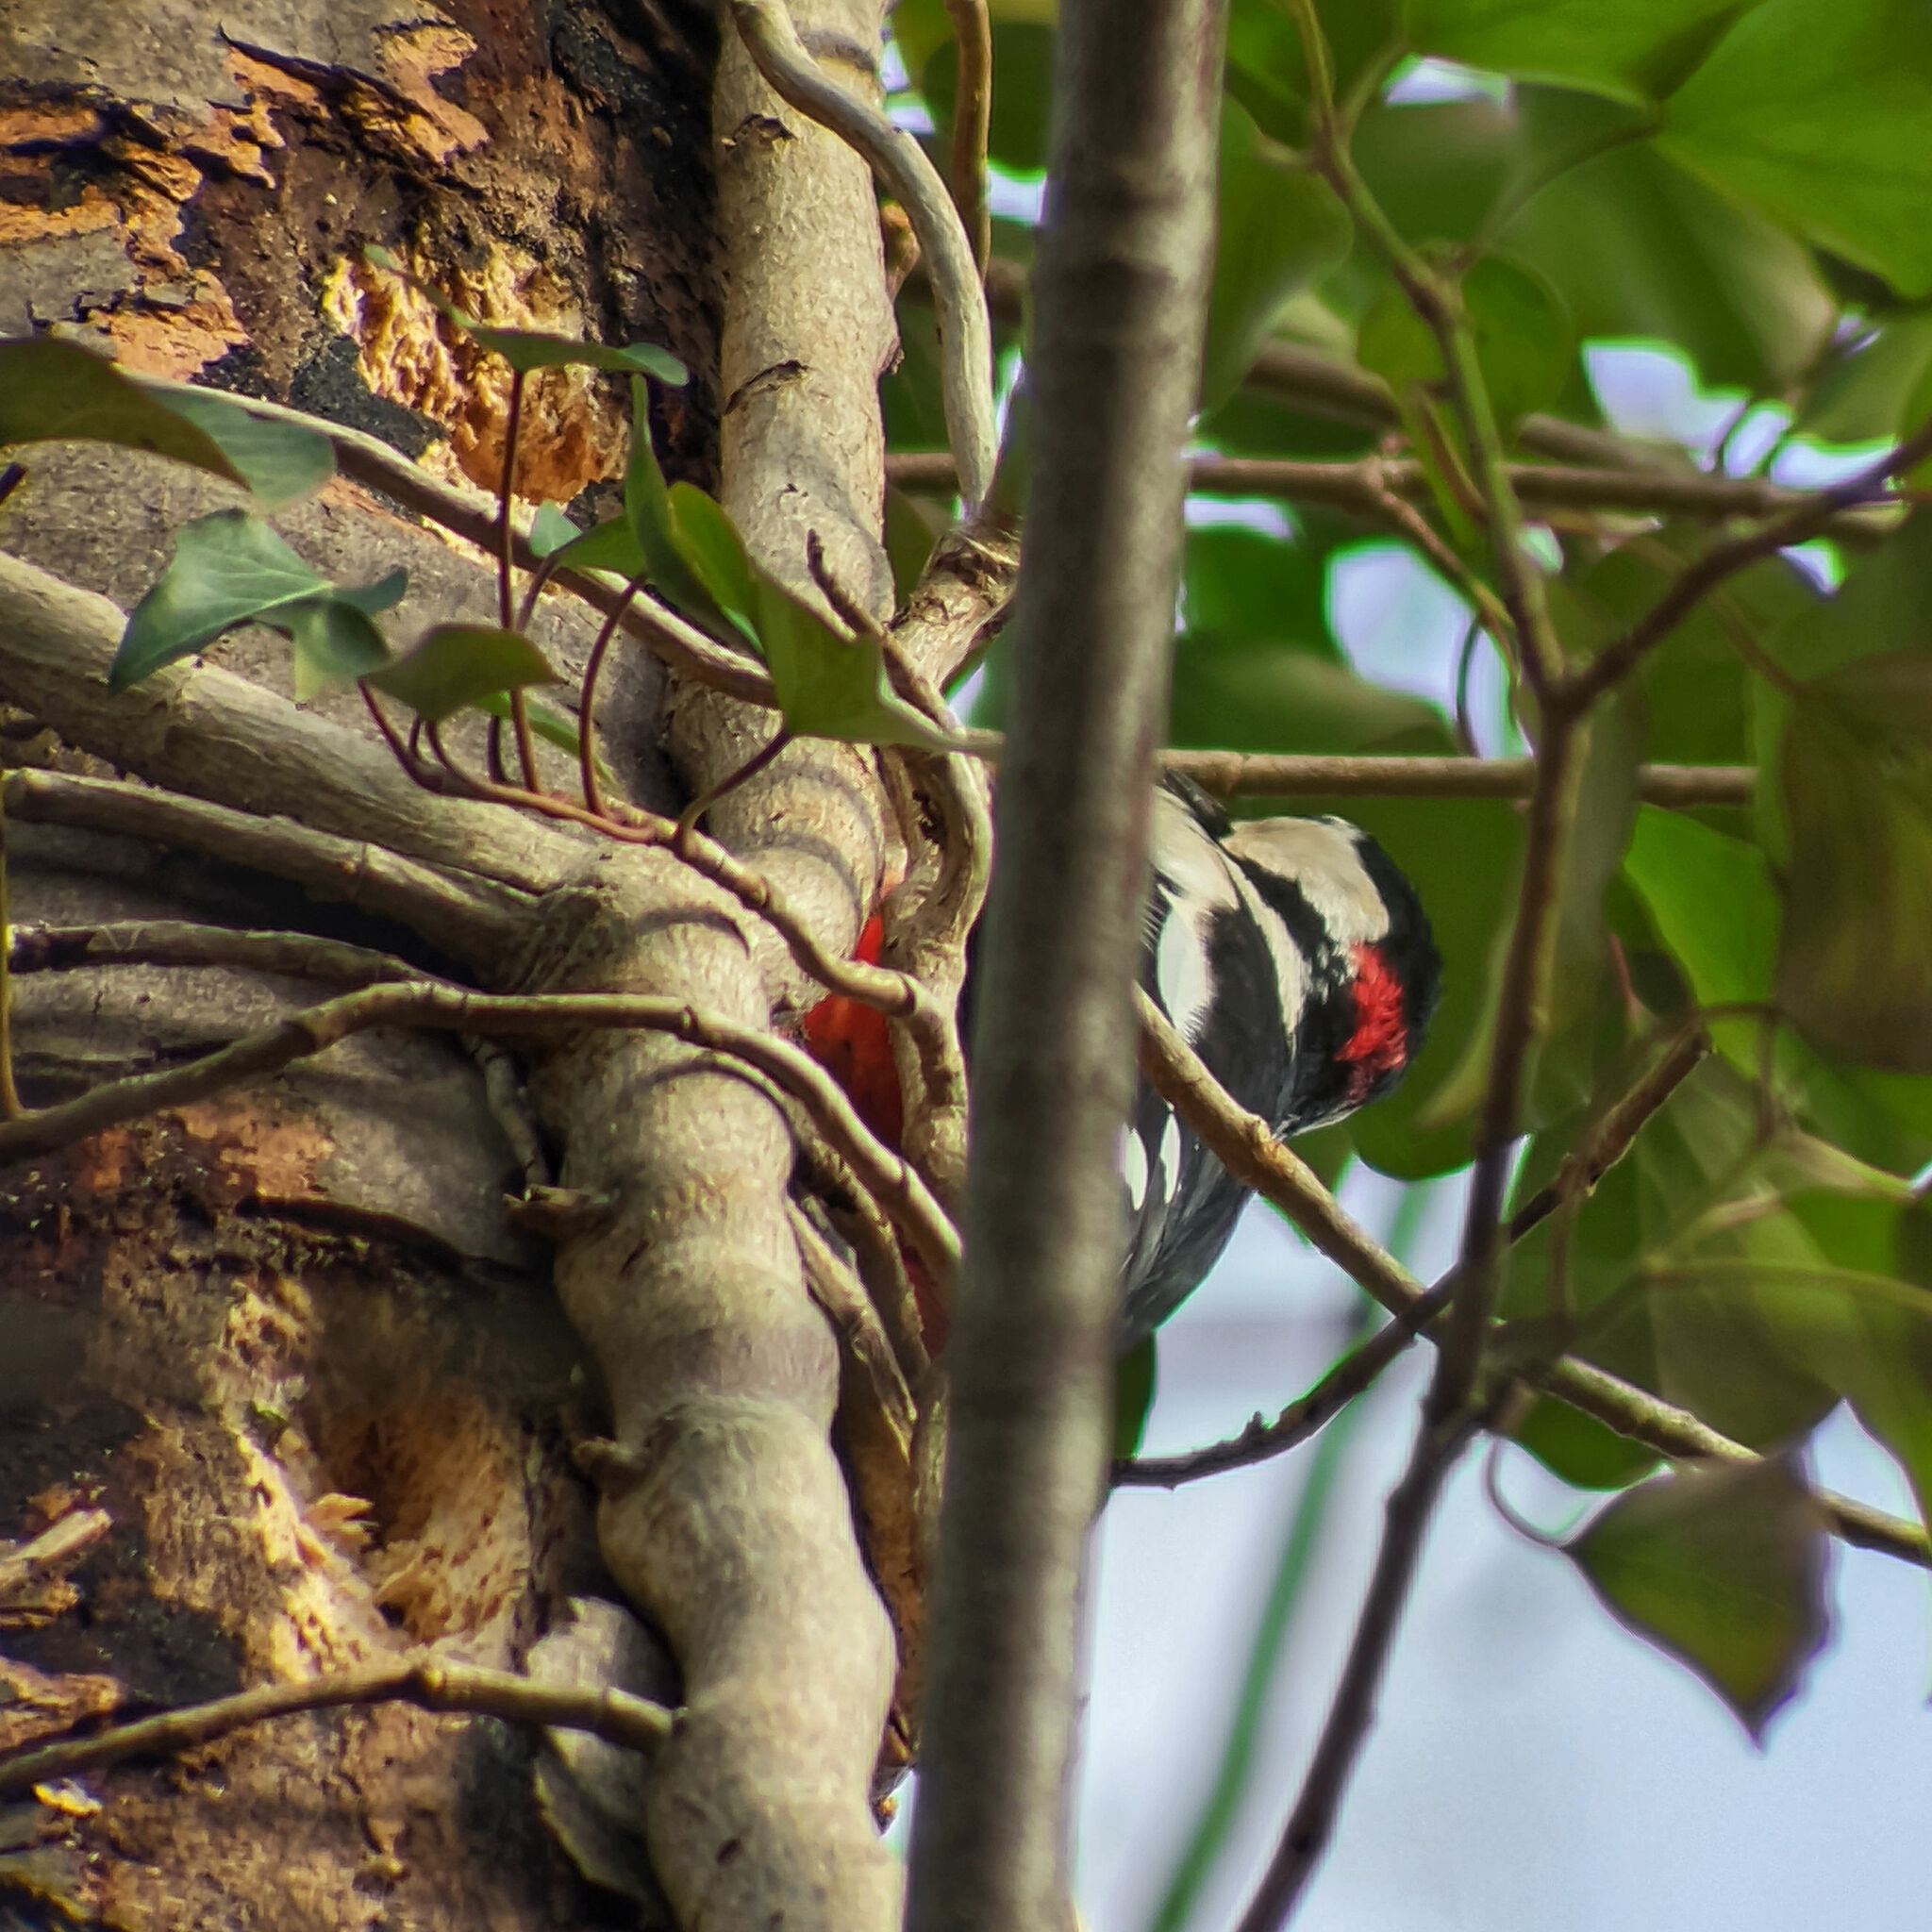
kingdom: Animalia
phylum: Chordata
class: Aves
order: Piciformes
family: Picidae
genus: Dendrocopos
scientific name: Dendrocopos major
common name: Great spotted woodpecker
